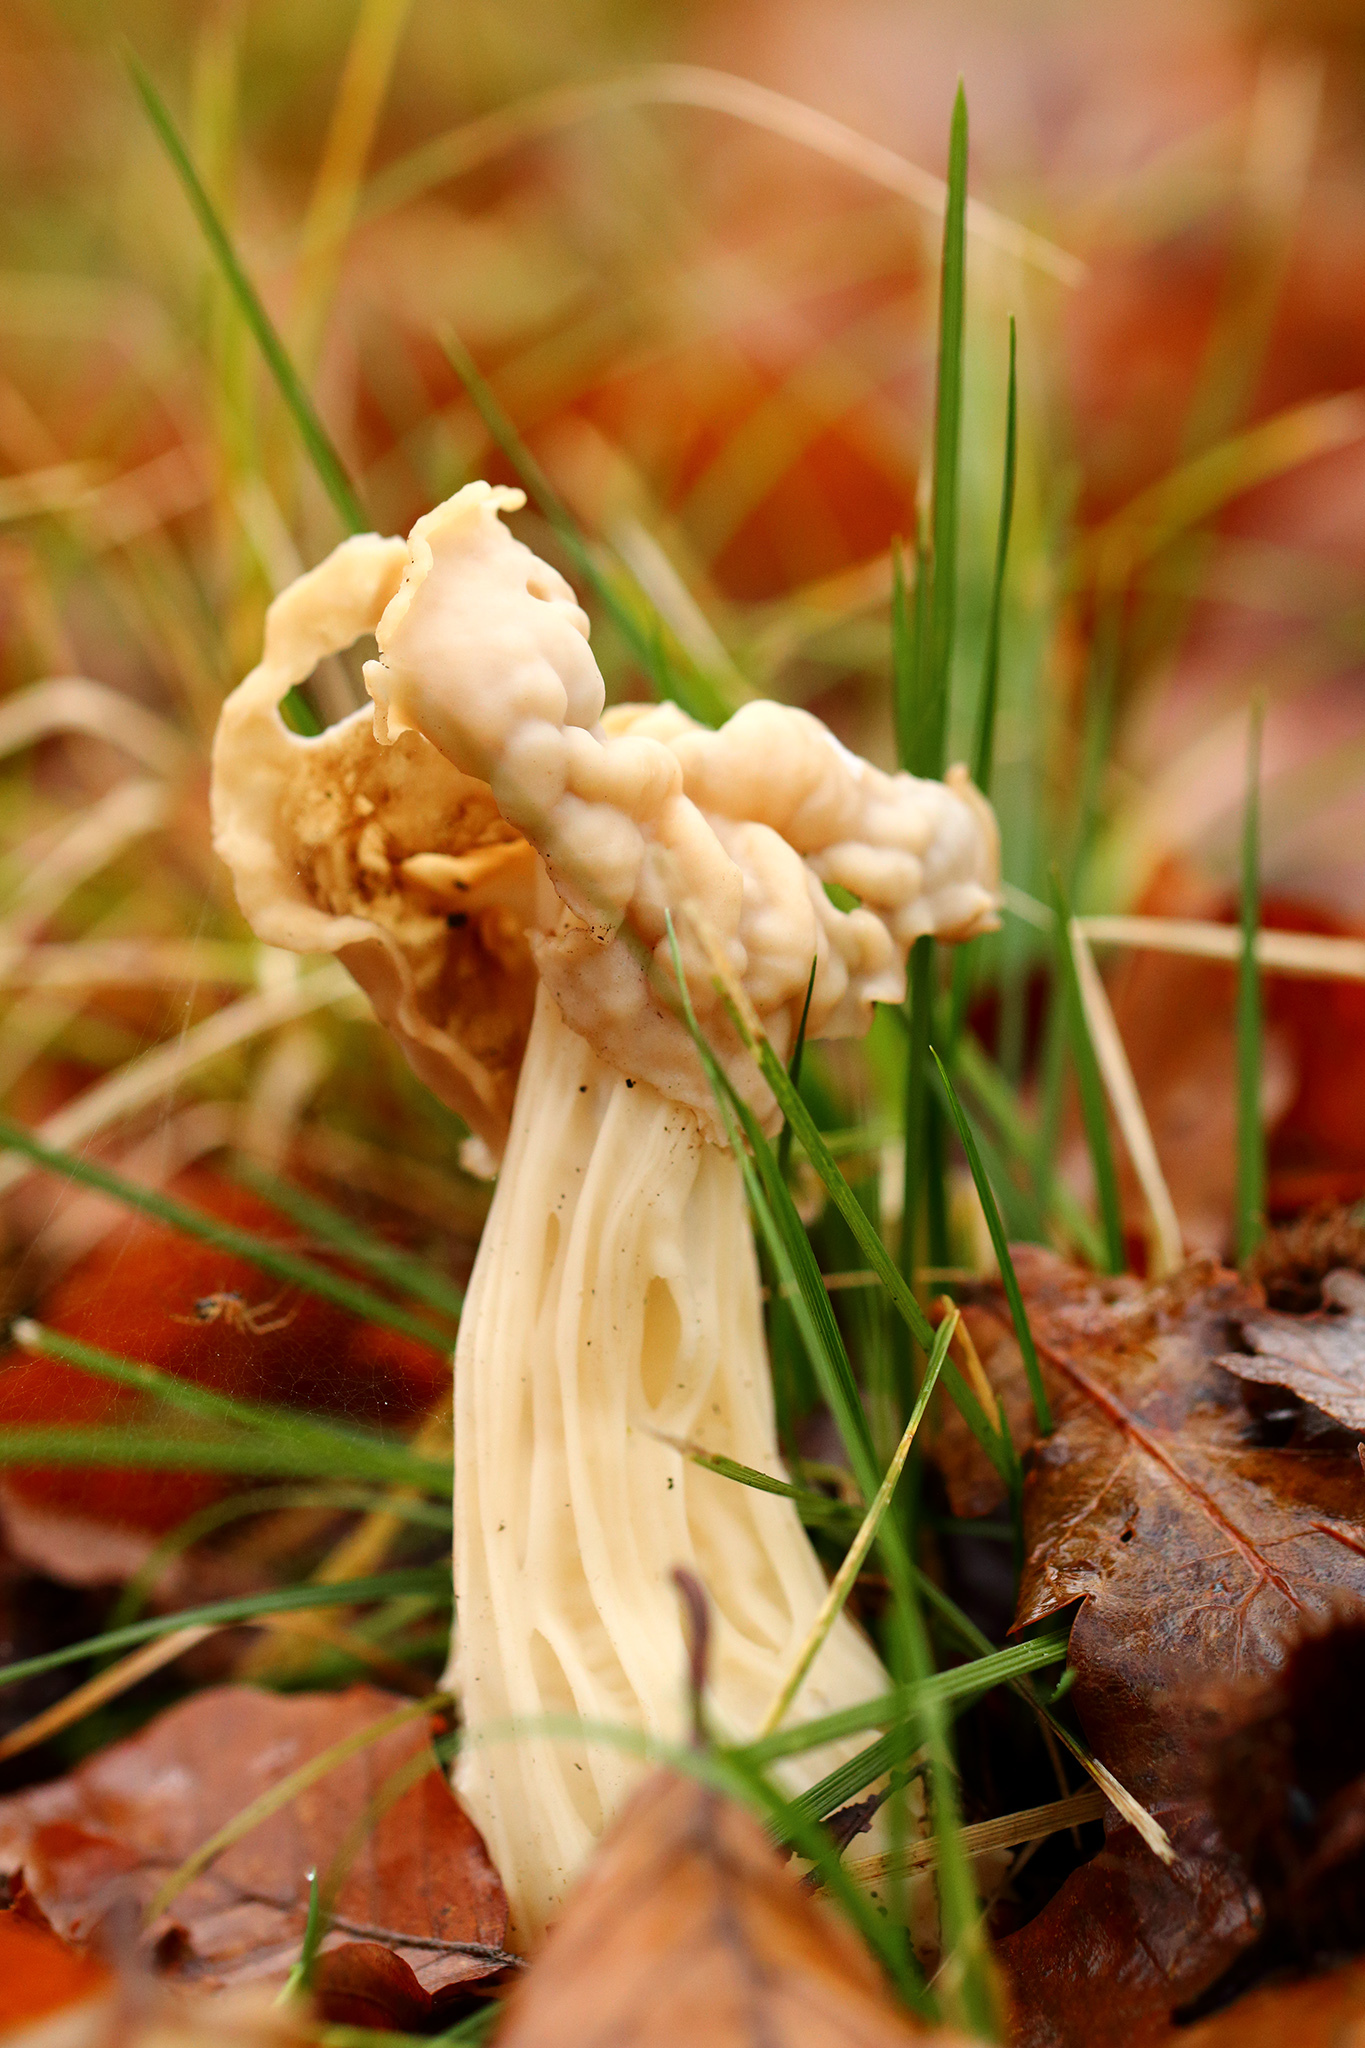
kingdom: Fungi
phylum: Ascomycota
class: Pezizomycetes
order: Pezizales
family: Helvellaceae
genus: Helvella
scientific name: Helvella crispa
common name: White saddle
